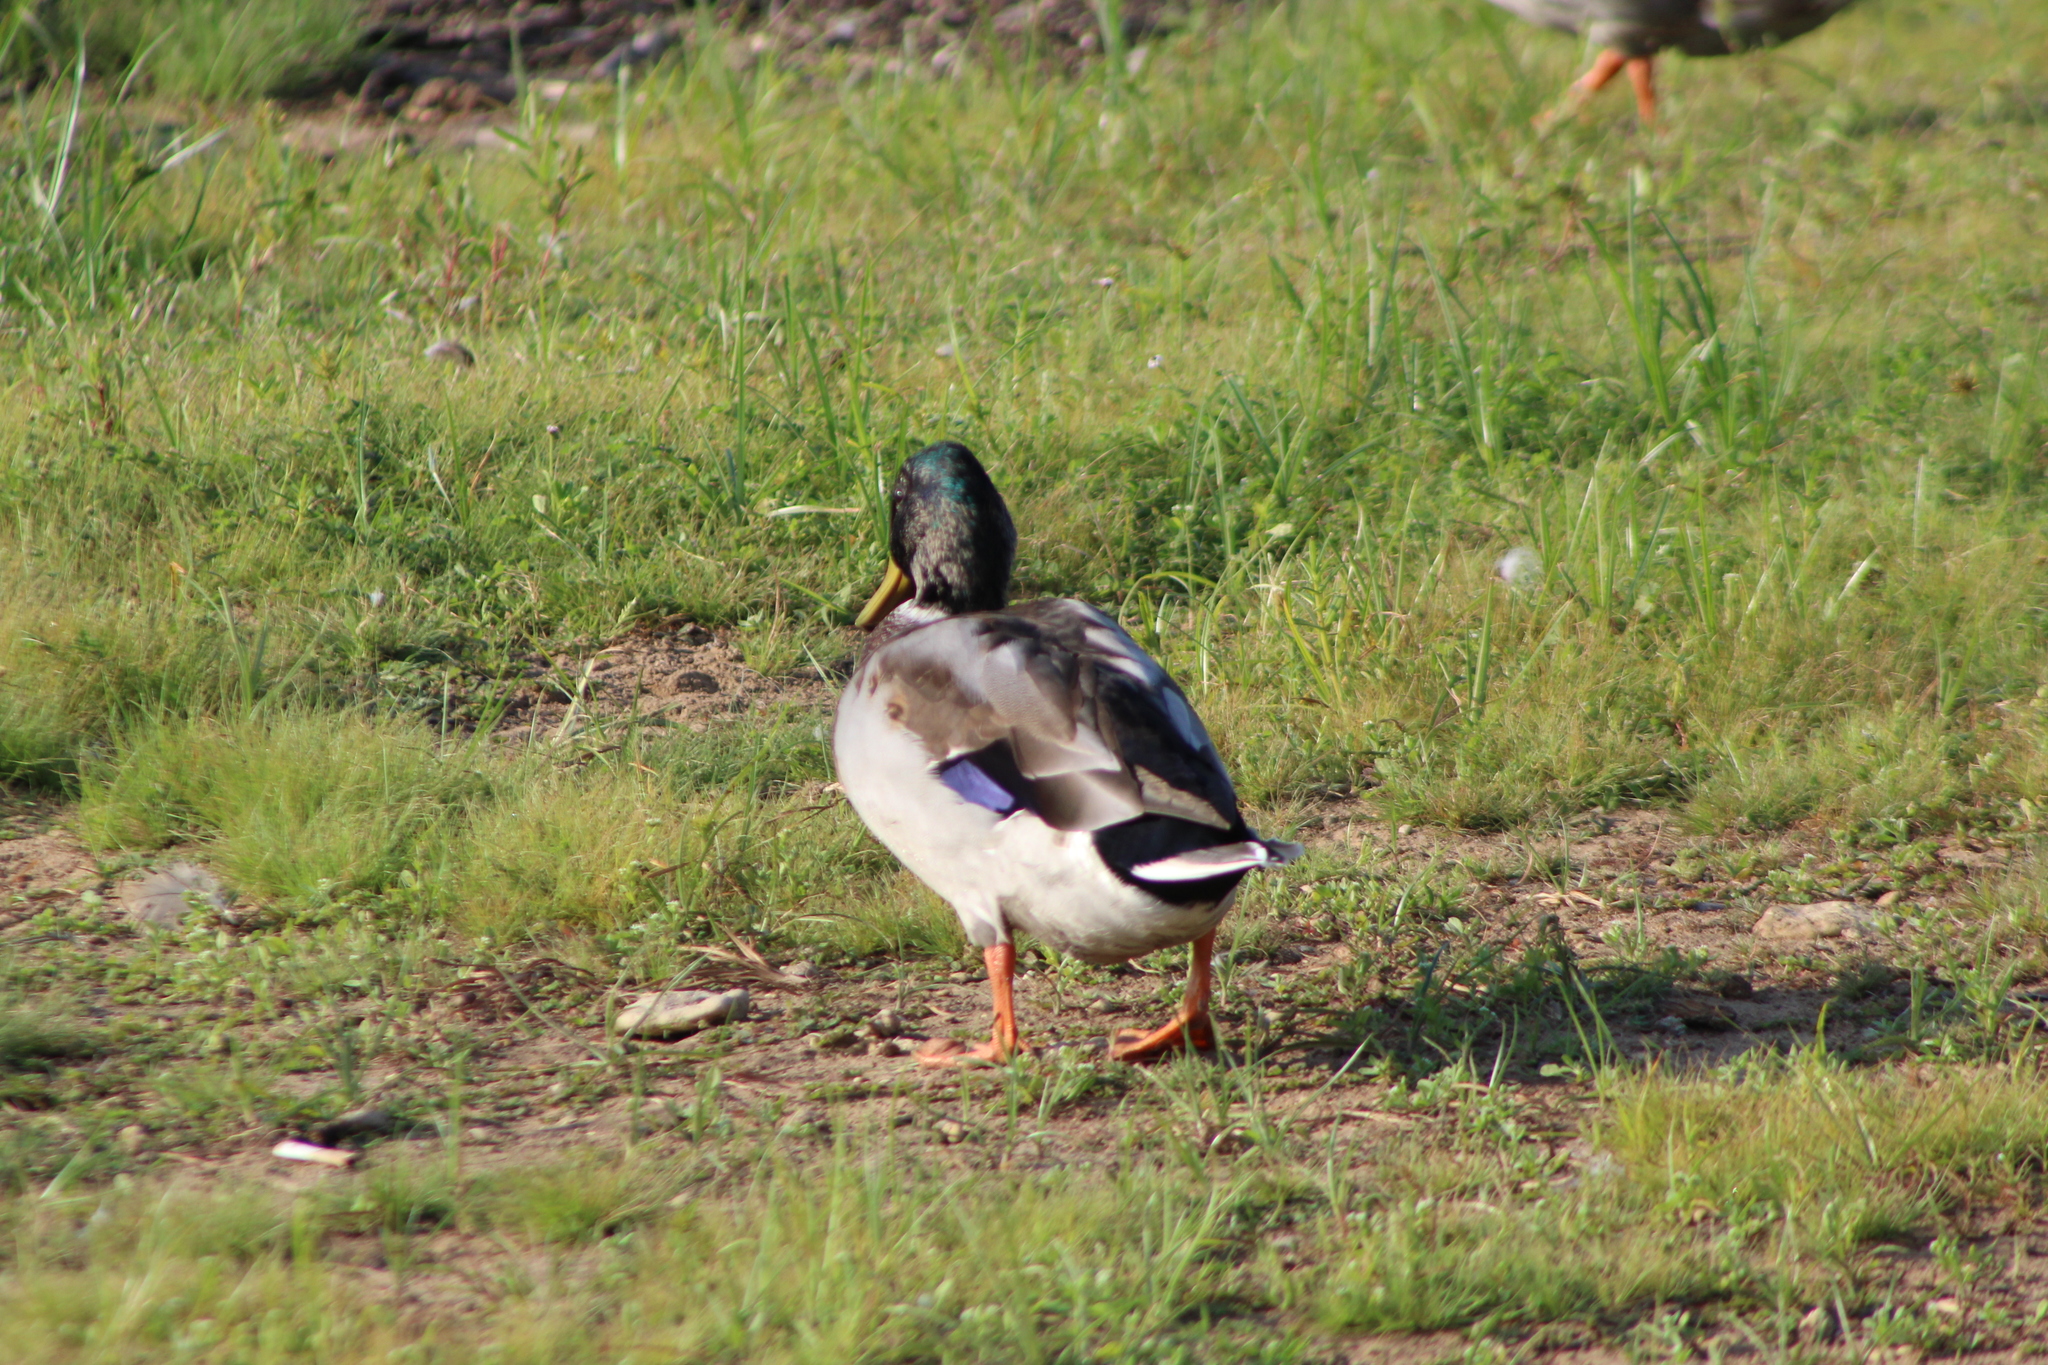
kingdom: Animalia
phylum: Chordata
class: Aves
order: Anseriformes
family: Anatidae
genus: Anas
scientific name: Anas platyrhynchos
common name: Mallard
